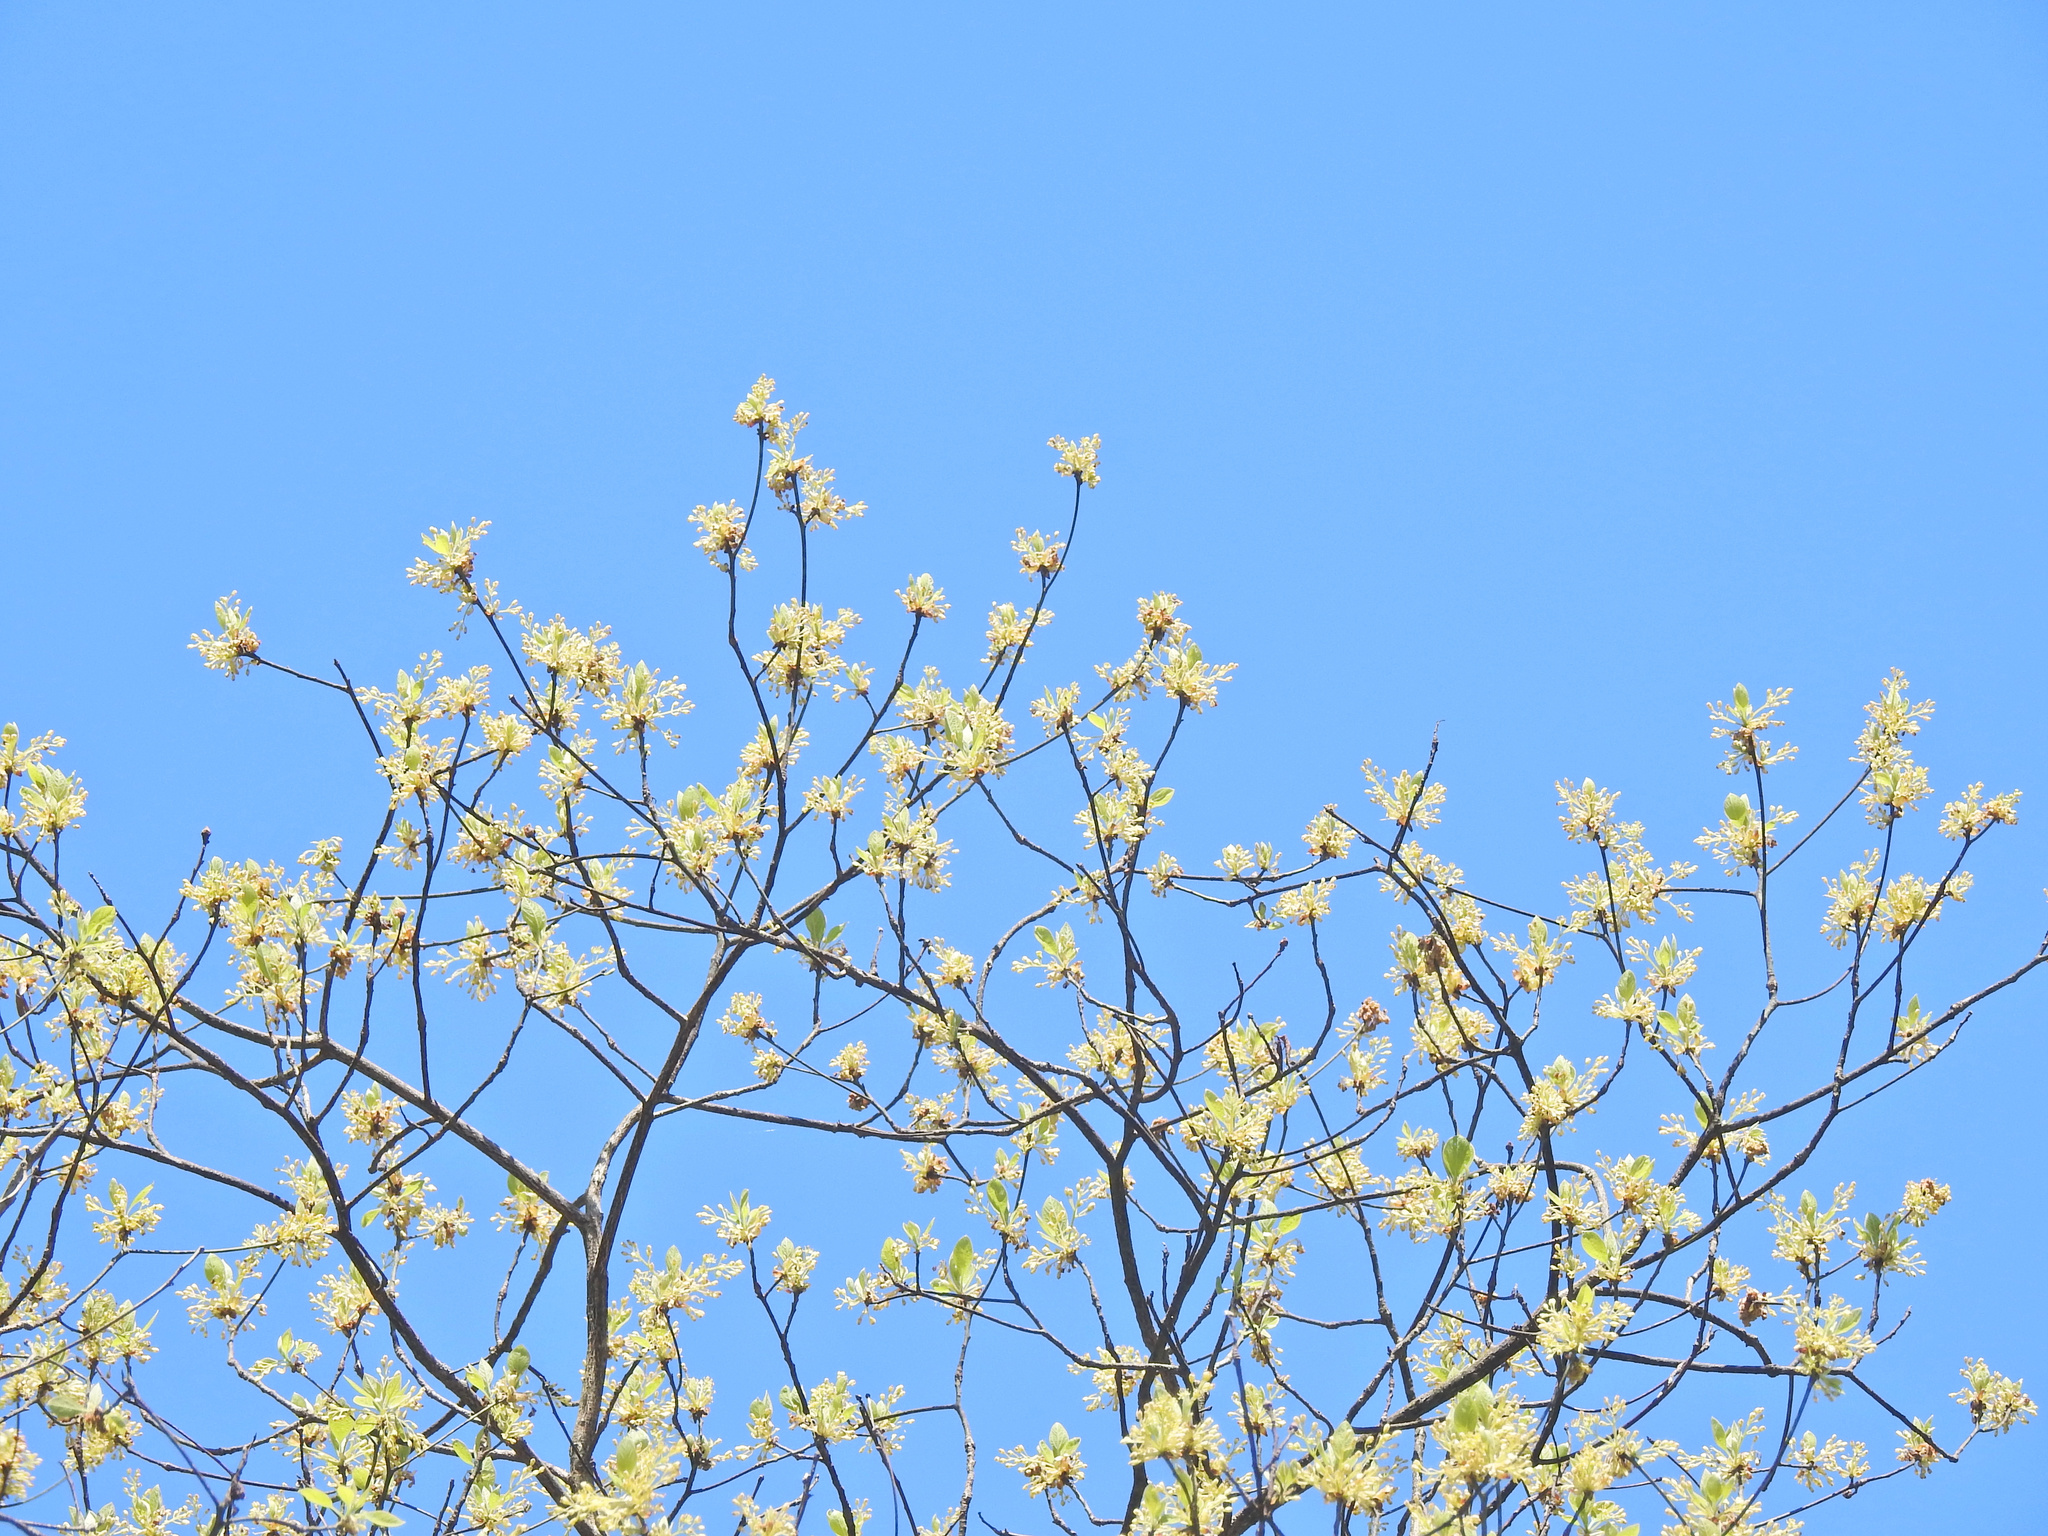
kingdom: Plantae
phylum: Tracheophyta
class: Magnoliopsida
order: Laurales
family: Lauraceae
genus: Sassafras
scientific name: Sassafras albidum
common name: Sassafras
